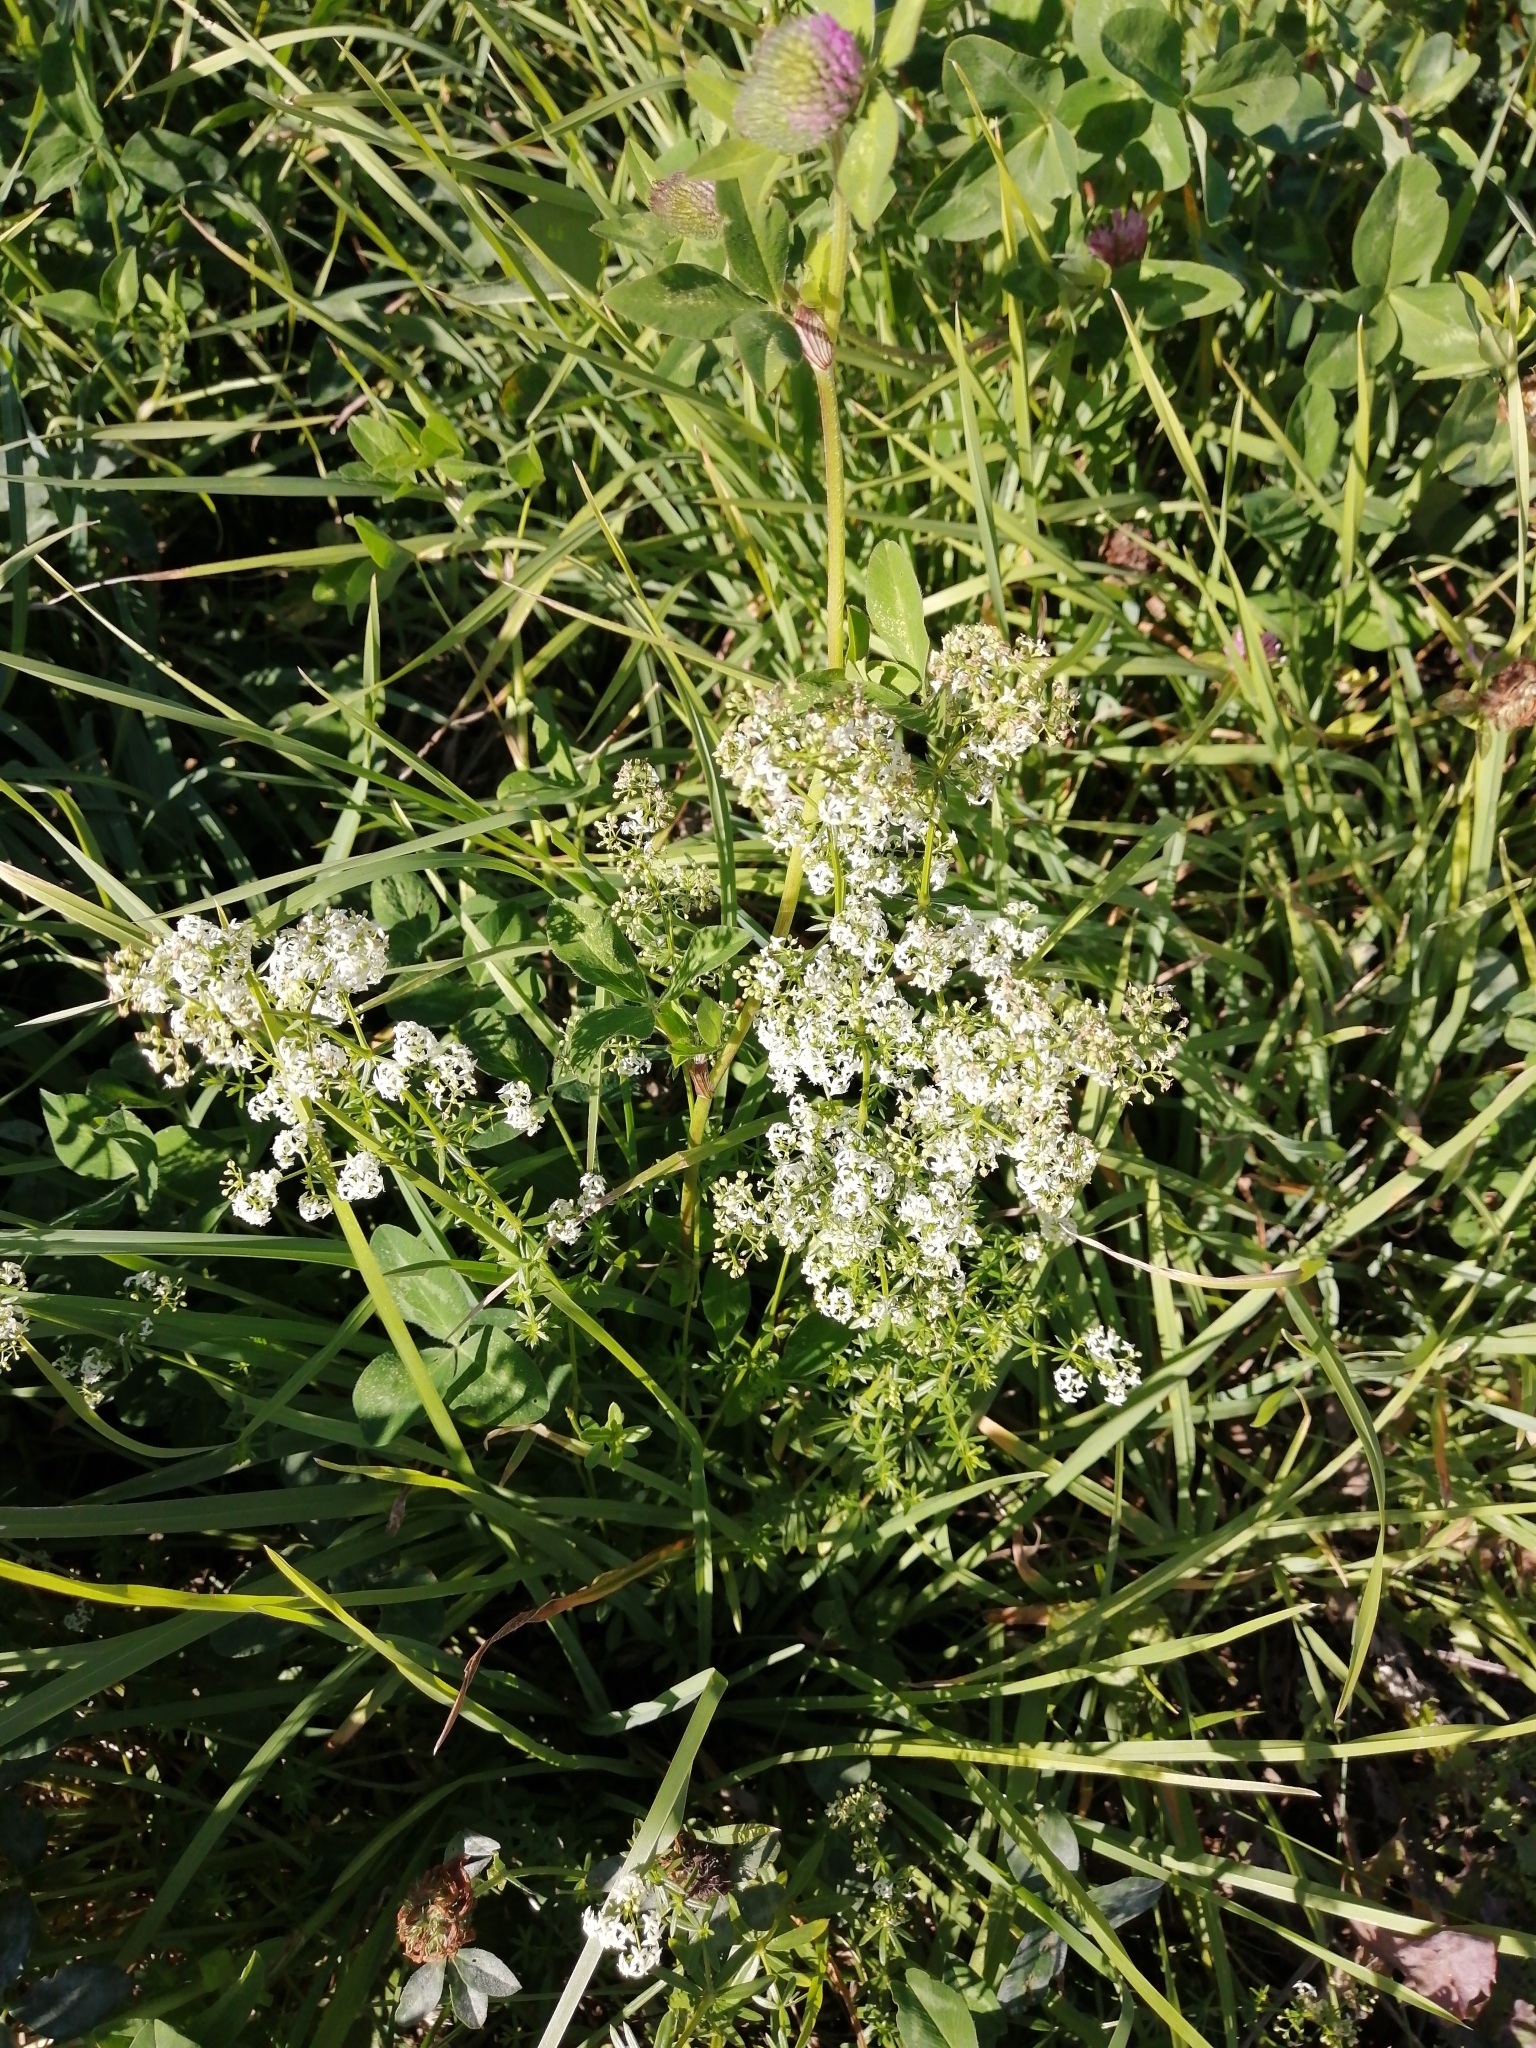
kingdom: Plantae
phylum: Tracheophyta
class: Magnoliopsida
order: Gentianales
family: Rubiaceae
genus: Galium
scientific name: Galium mollugo
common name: Hedge bedstraw
